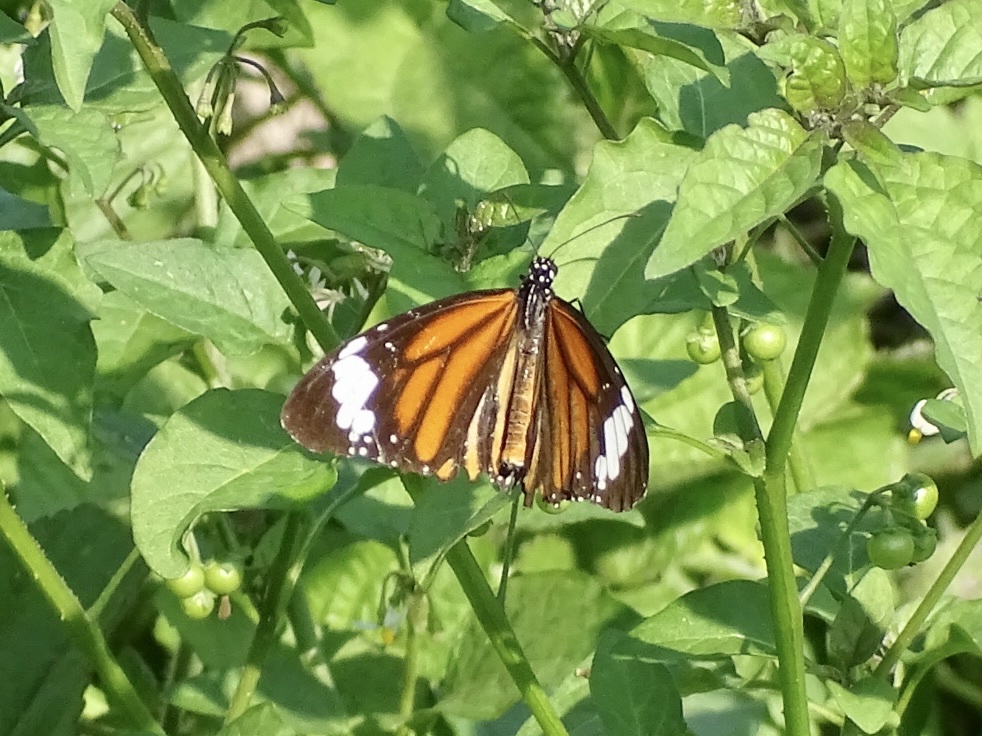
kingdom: Animalia
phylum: Arthropoda
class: Insecta
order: Lepidoptera
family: Nymphalidae
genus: Danaus
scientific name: Danaus genutia
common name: Common tiger butterfly
